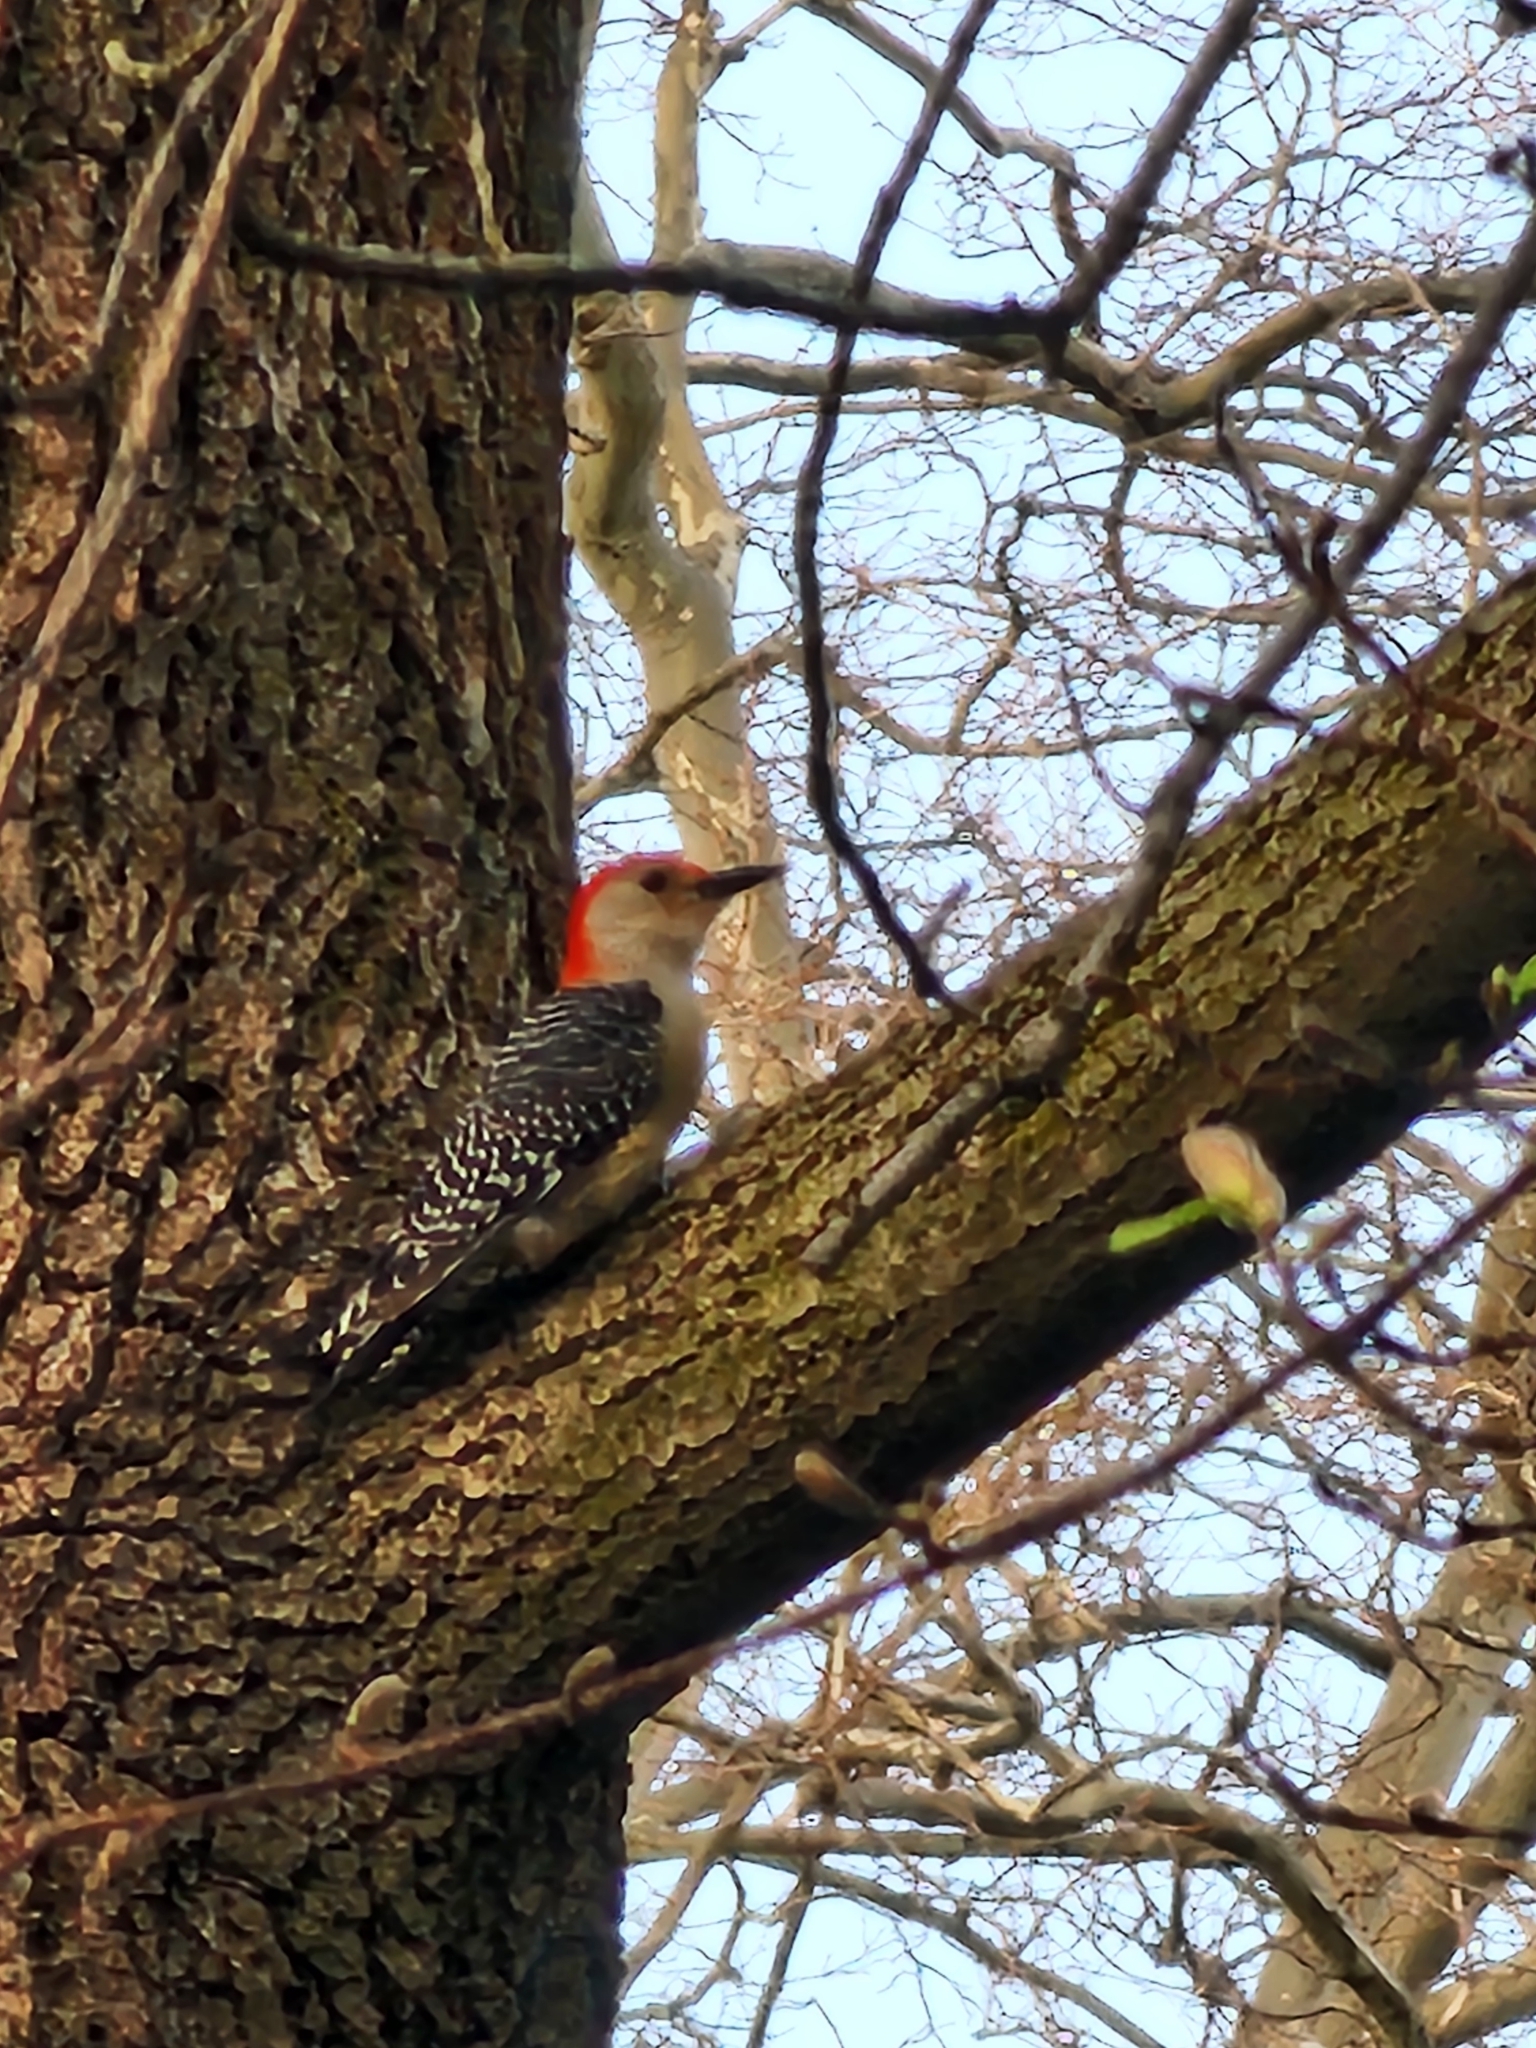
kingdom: Animalia
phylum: Chordata
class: Aves
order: Piciformes
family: Picidae
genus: Melanerpes
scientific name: Melanerpes carolinus
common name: Red-bellied woodpecker
